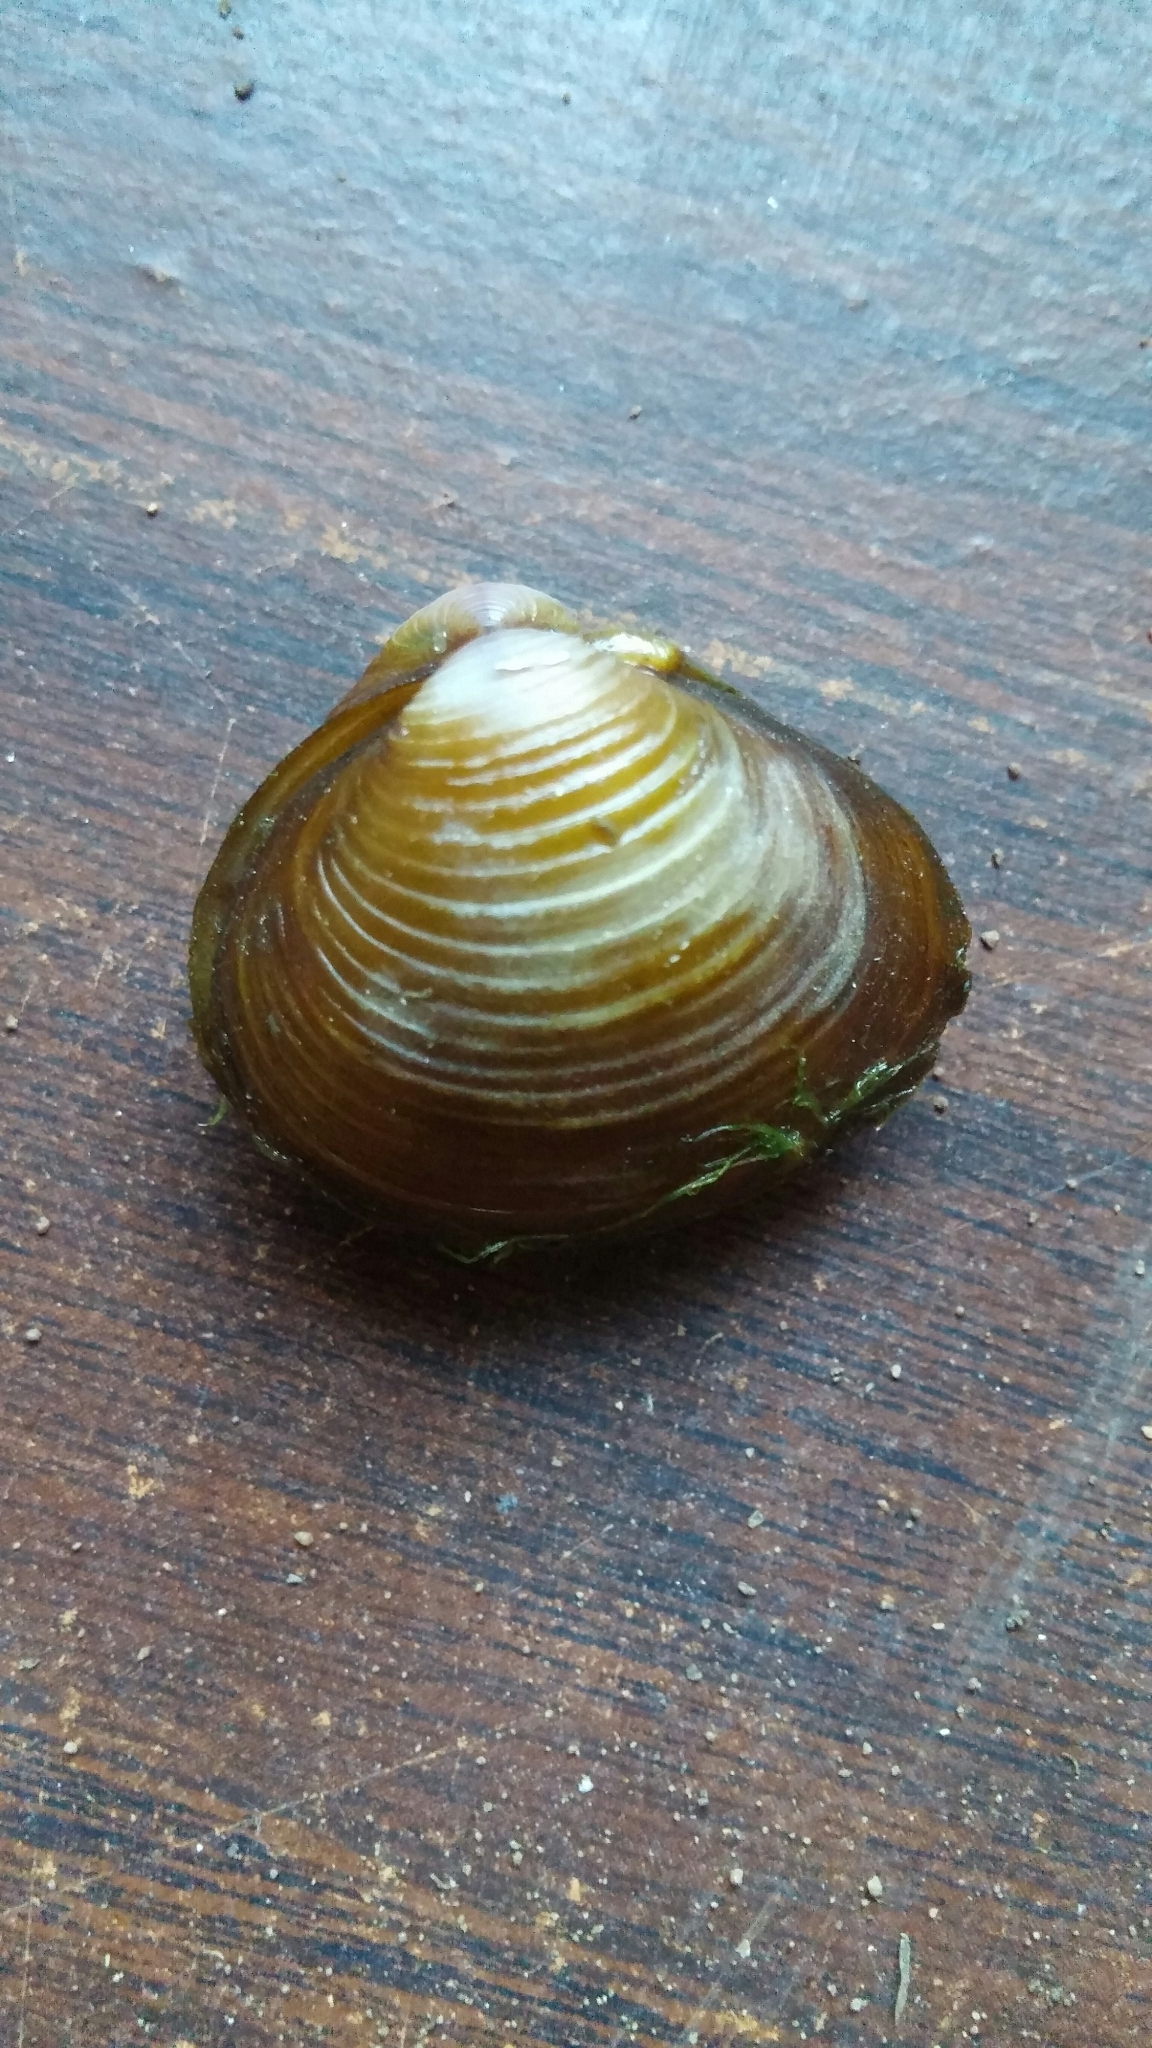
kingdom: Animalia
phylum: Mollusca
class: Bivalvia
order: Venerida
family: Cyrenidae
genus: Corbicula
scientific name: Corbicula fluminea
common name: Asian clam
